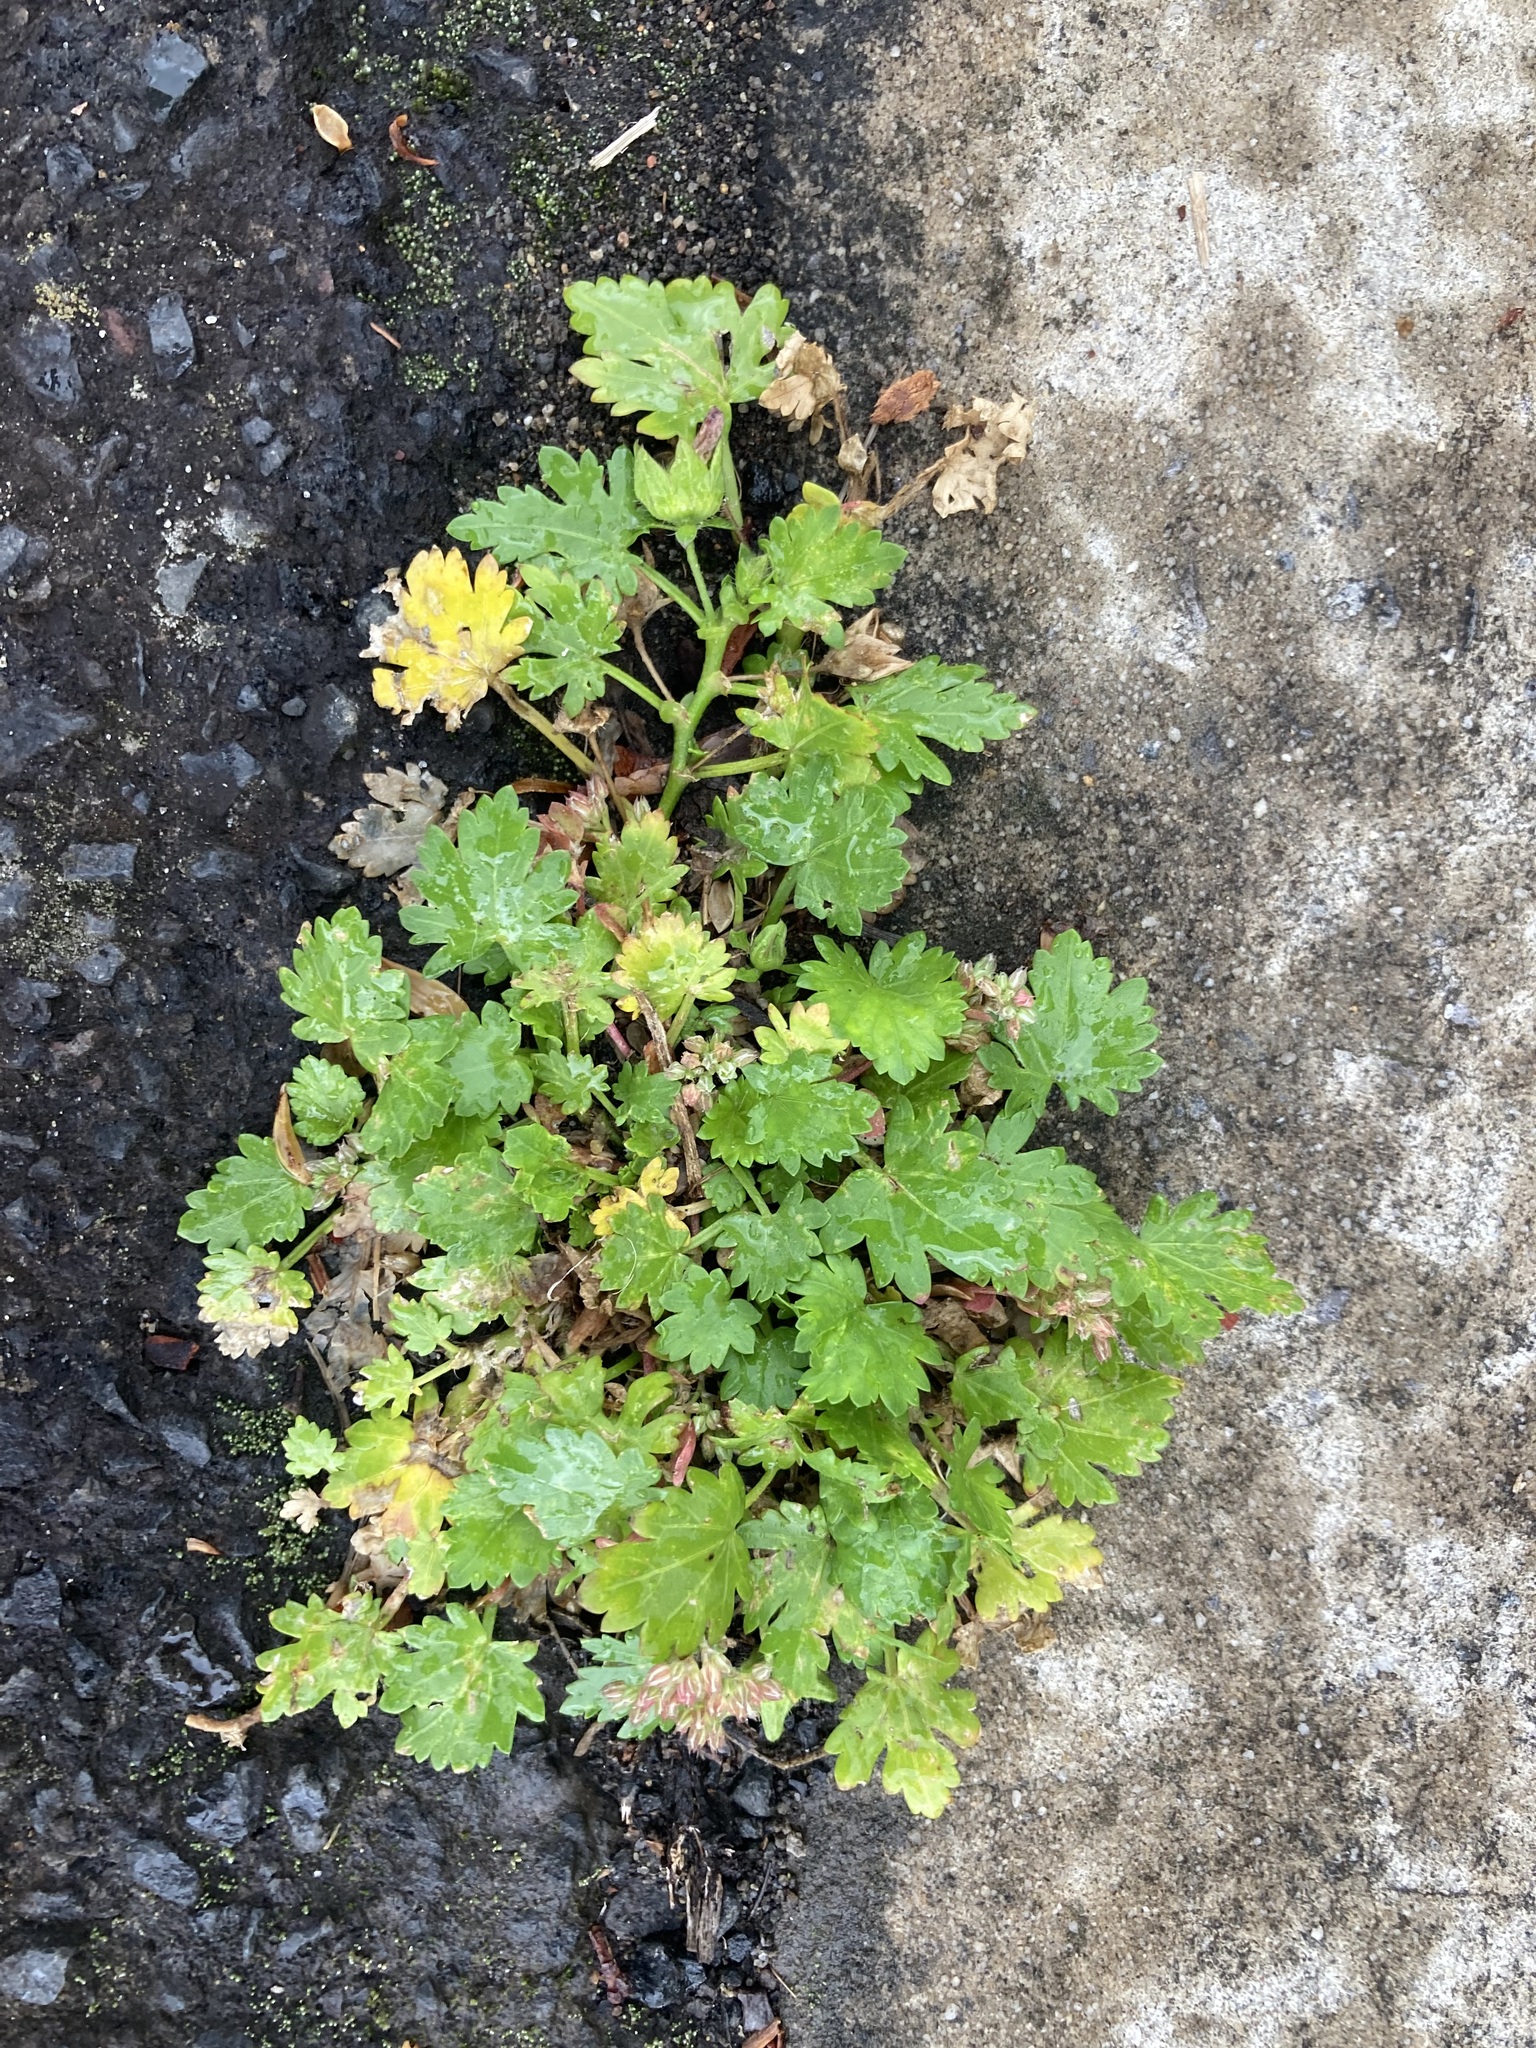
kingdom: Plantae
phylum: Tracheophyta
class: Magnoliopsida
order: Malvales
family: Malvaceae
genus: Modiola
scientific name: Modiola caroliniana
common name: Carolina bristlemallow
